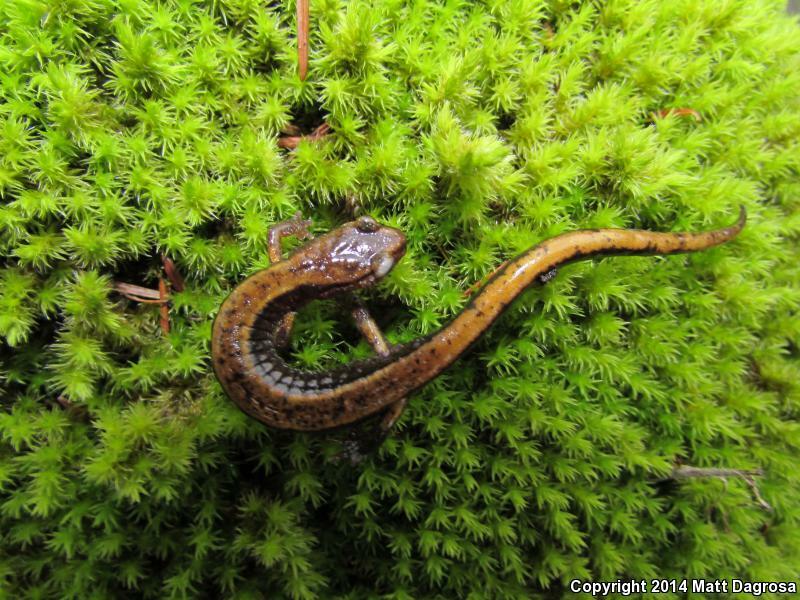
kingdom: Animalia
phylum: Chordata
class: Amphibia
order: Caudata
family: Plethodontidae
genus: Plethodon
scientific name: Plethodon vehiculum
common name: Western red-backed salamander
